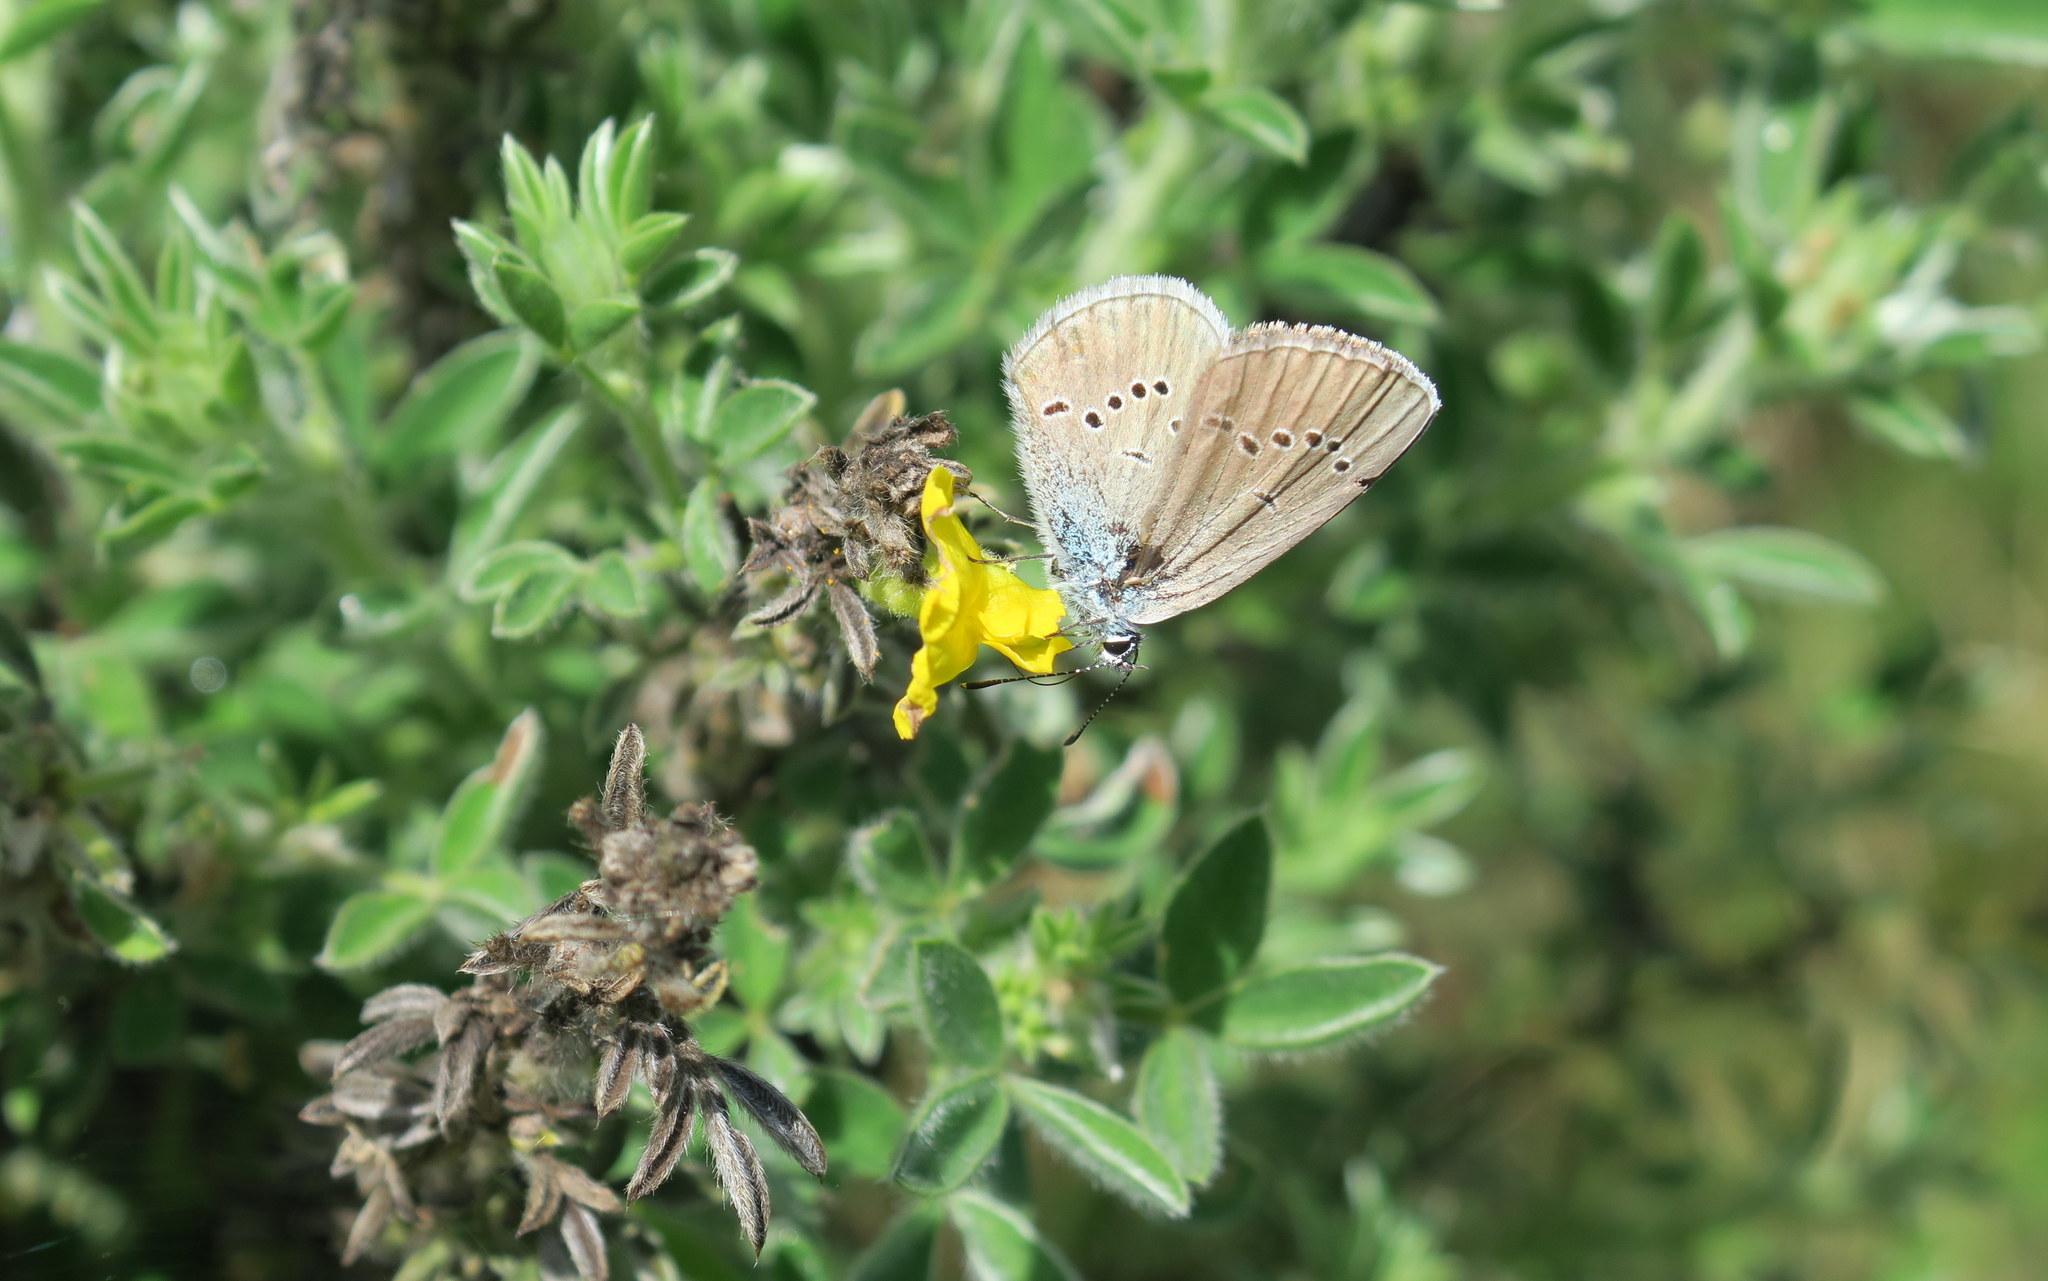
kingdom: Animalia
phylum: Arthropoda
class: Insecta
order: Lepidoptera
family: Lycaenidae
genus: Cyaniris
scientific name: Cyaniris semiargus
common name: Mazarine blue
